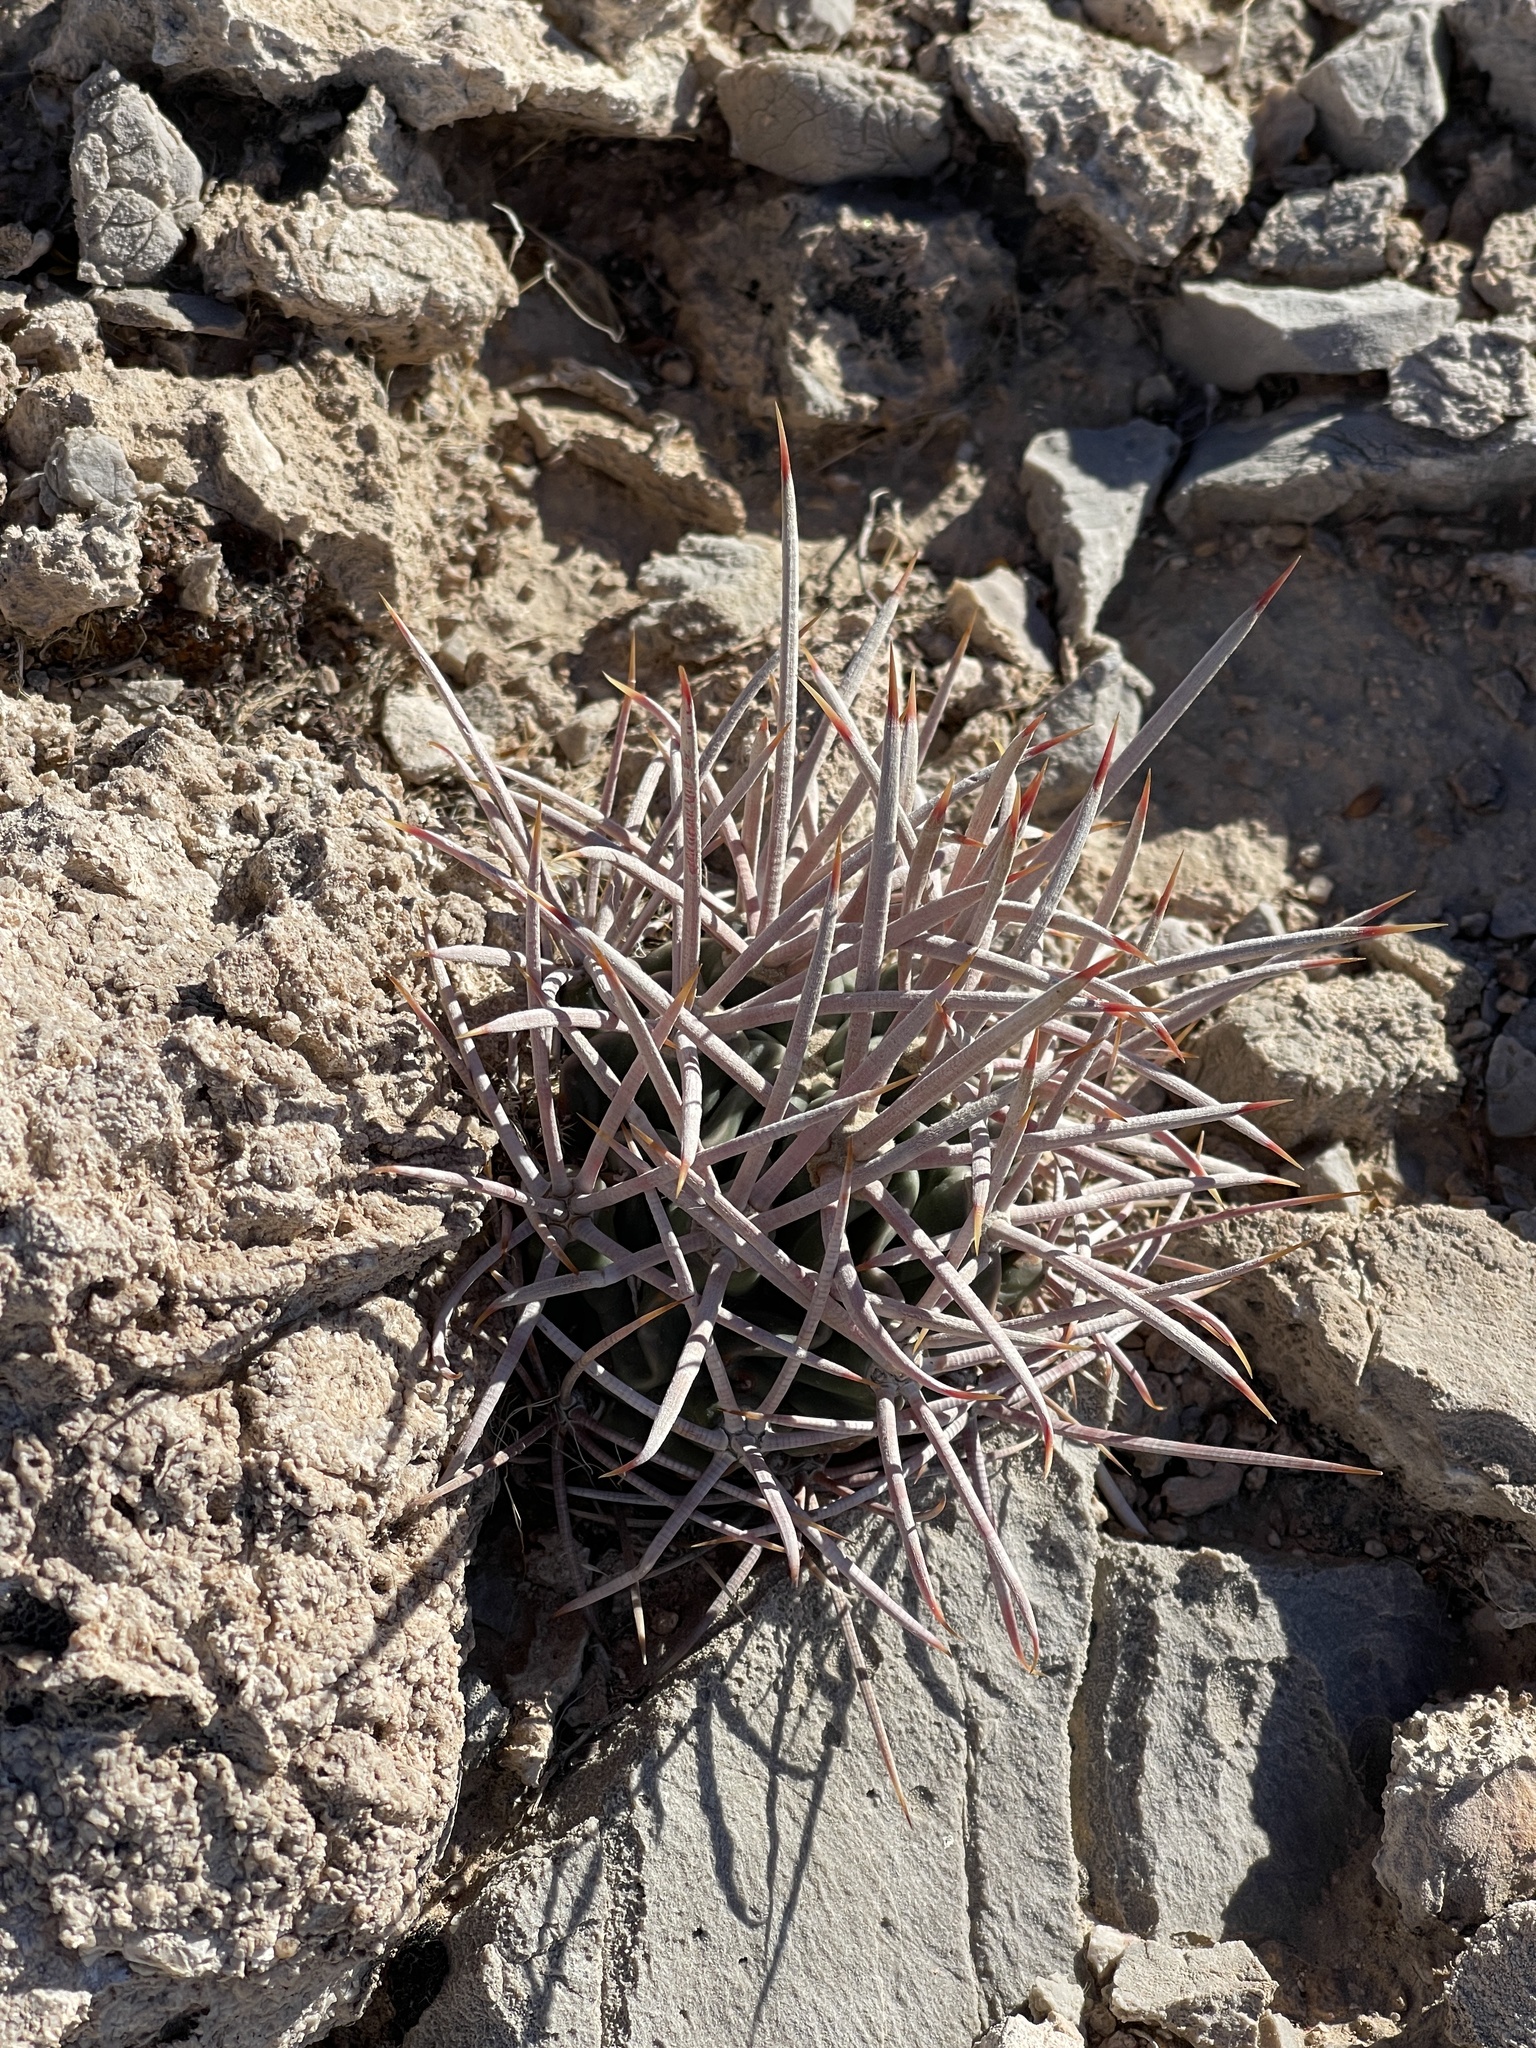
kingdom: Plantae
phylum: Tracheophyta
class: Magnoliopsida
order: Caryophyllales
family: Cactaceae
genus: Echinocactus
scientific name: Echinocactus polycephalus
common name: Cottontop cactus
